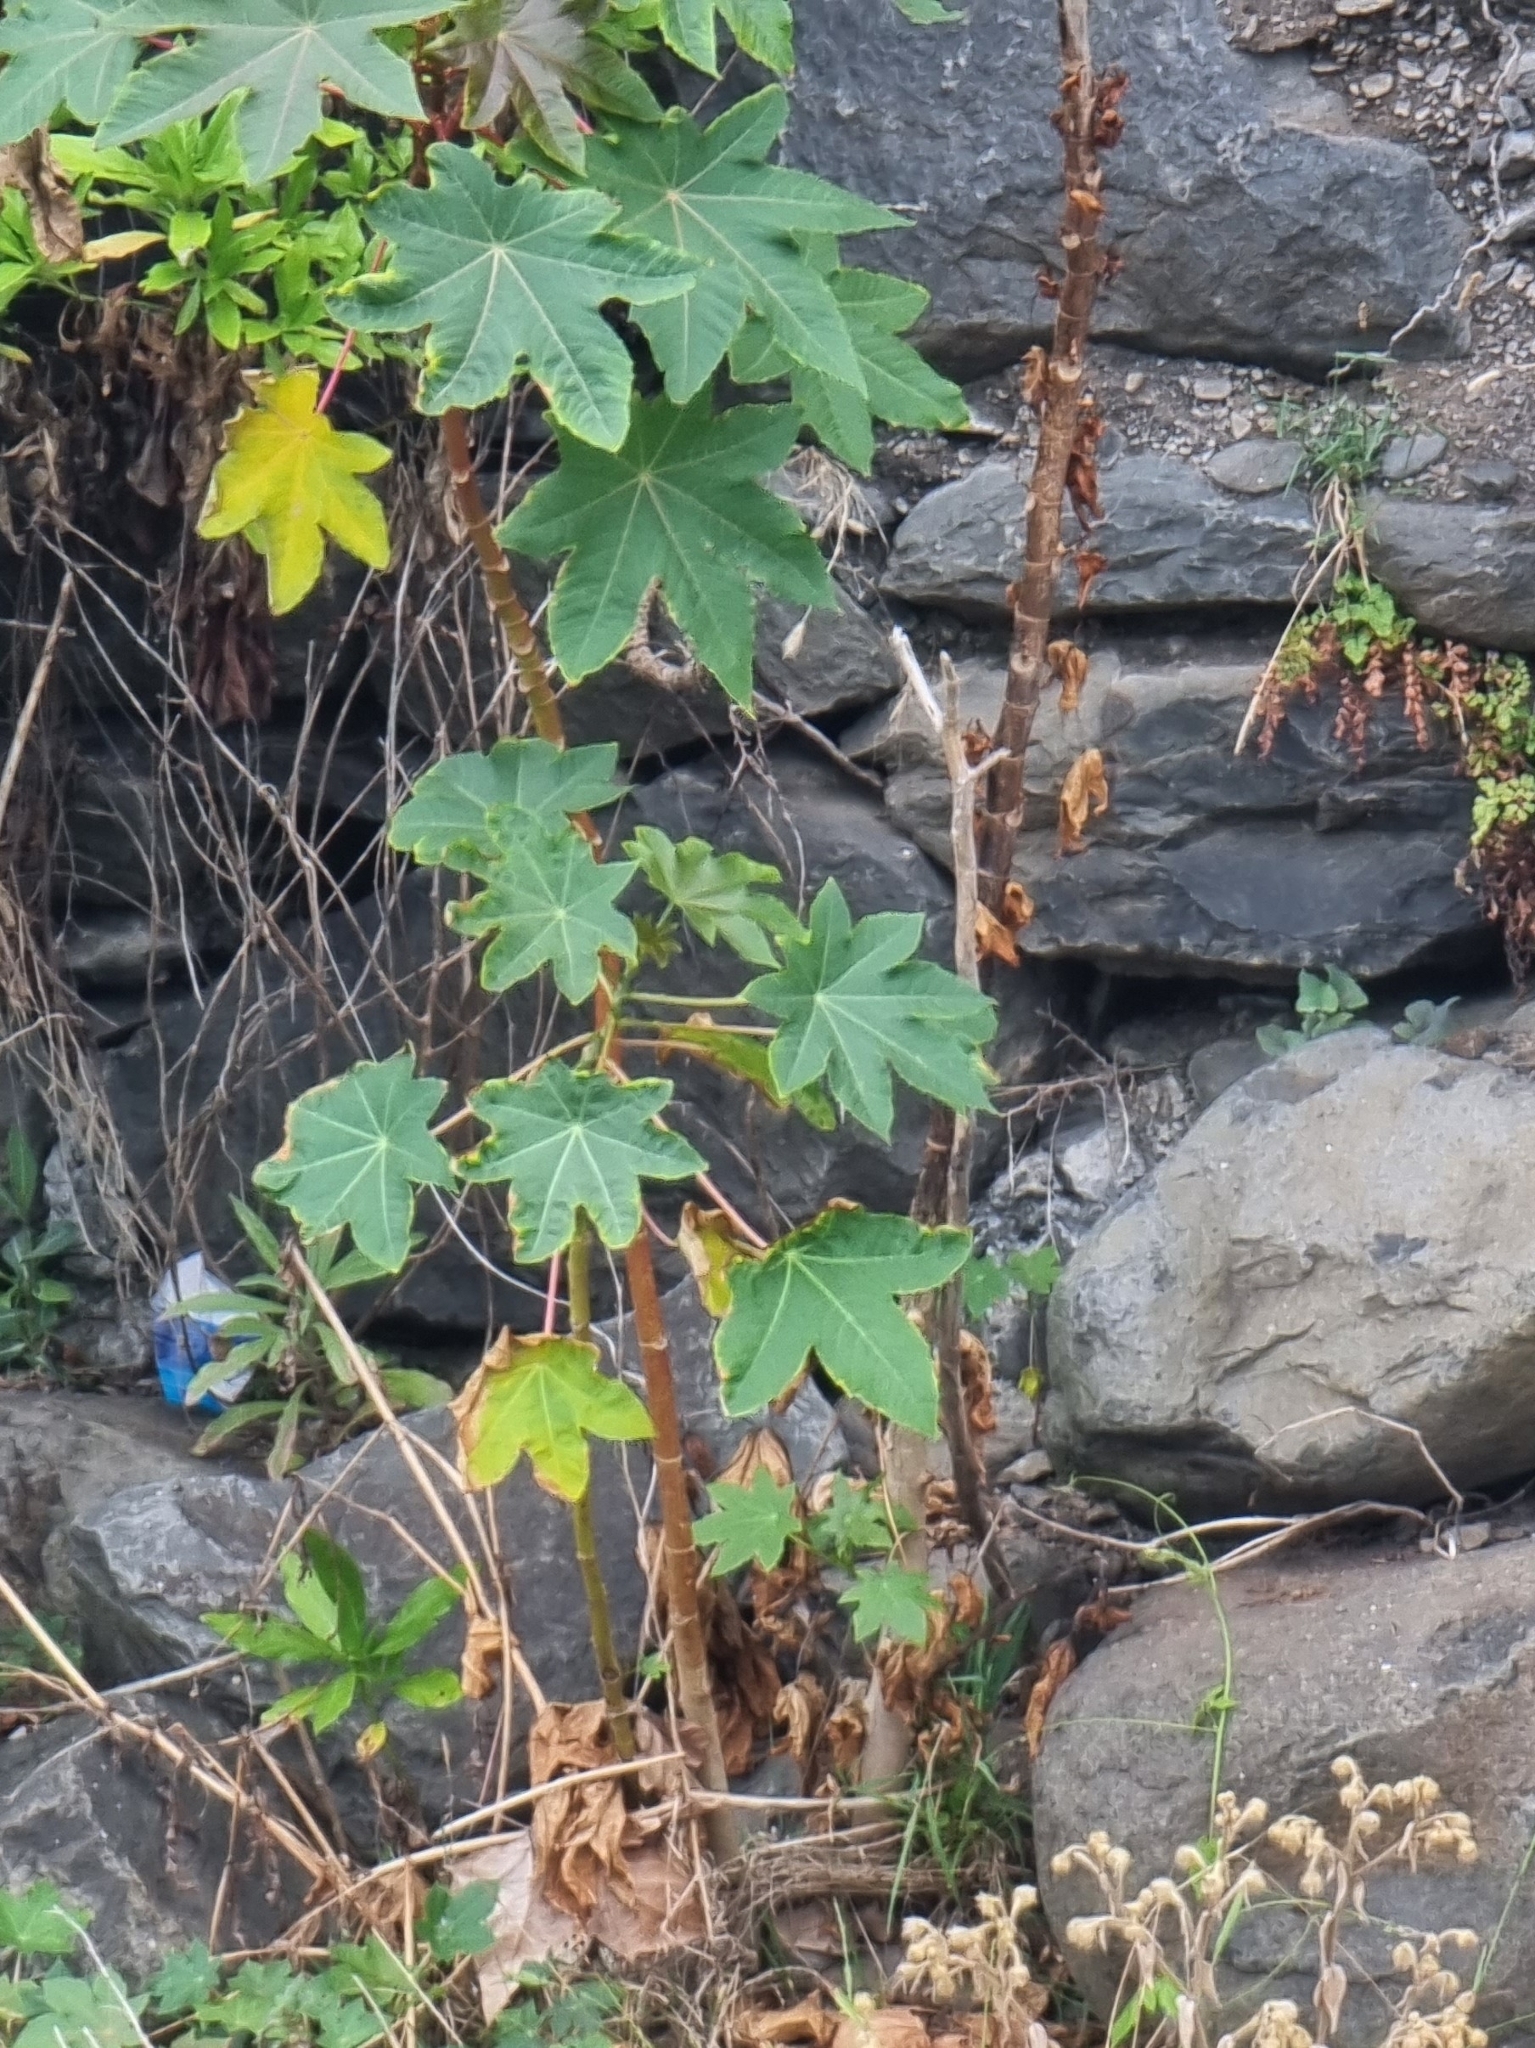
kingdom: Plantae
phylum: Tracheophyta
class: Magnoliopsida
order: Malpighiales
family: Euphorbiaceae
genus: Ricinus
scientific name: Ricinus communis
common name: Castor-oil-plant
